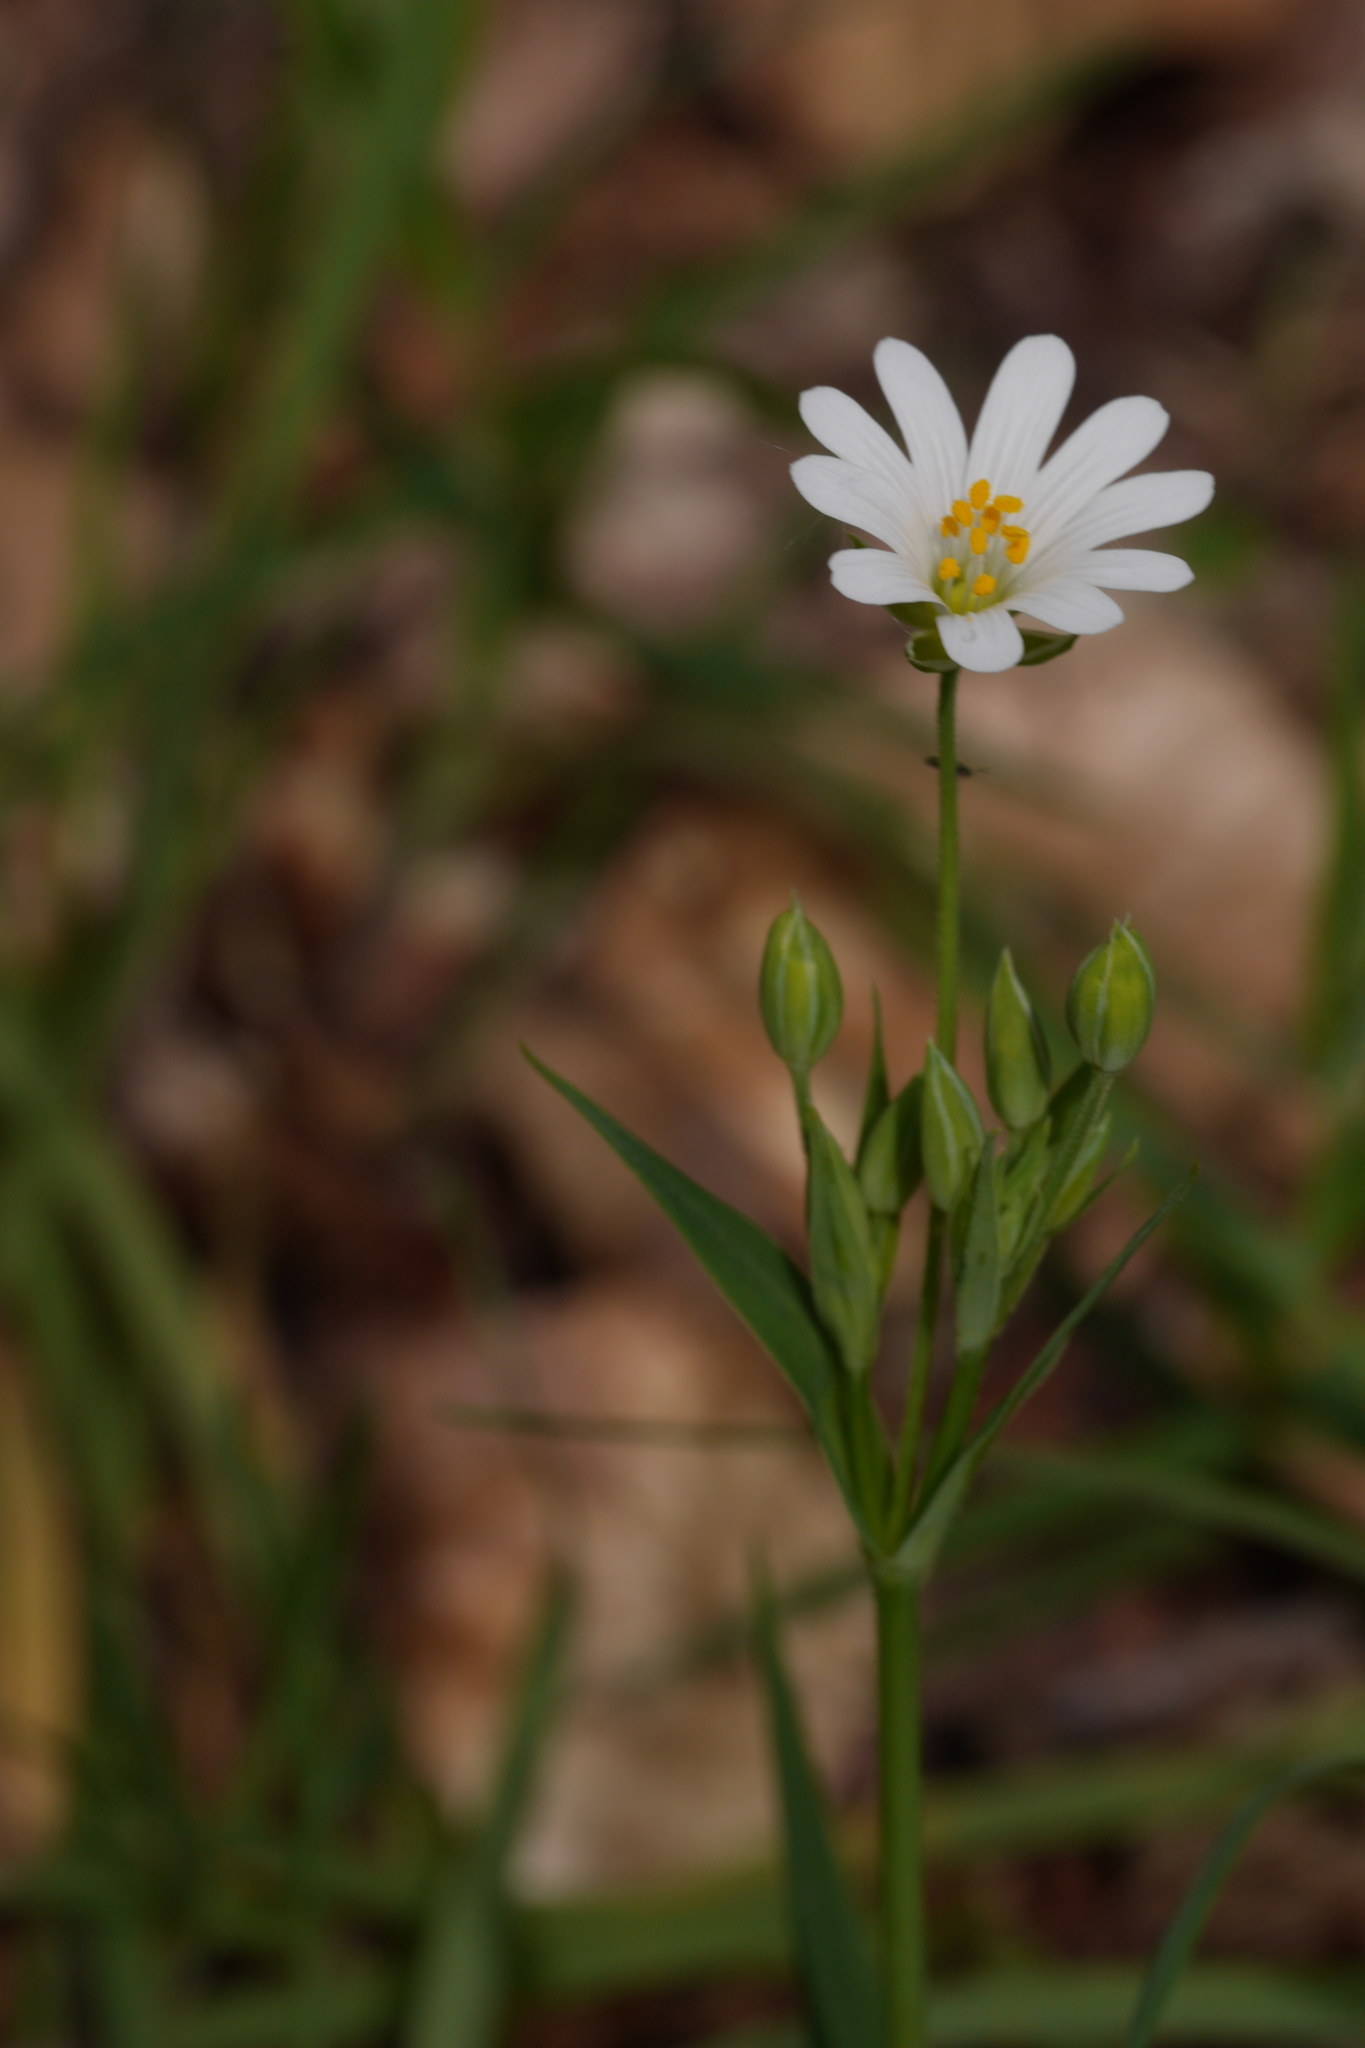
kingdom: Plantae
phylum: Tracheophyta
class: Magnoliopsida
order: Caryophyllales
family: Caryophyllaceae
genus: Rabelera
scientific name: Rabelera holostea
